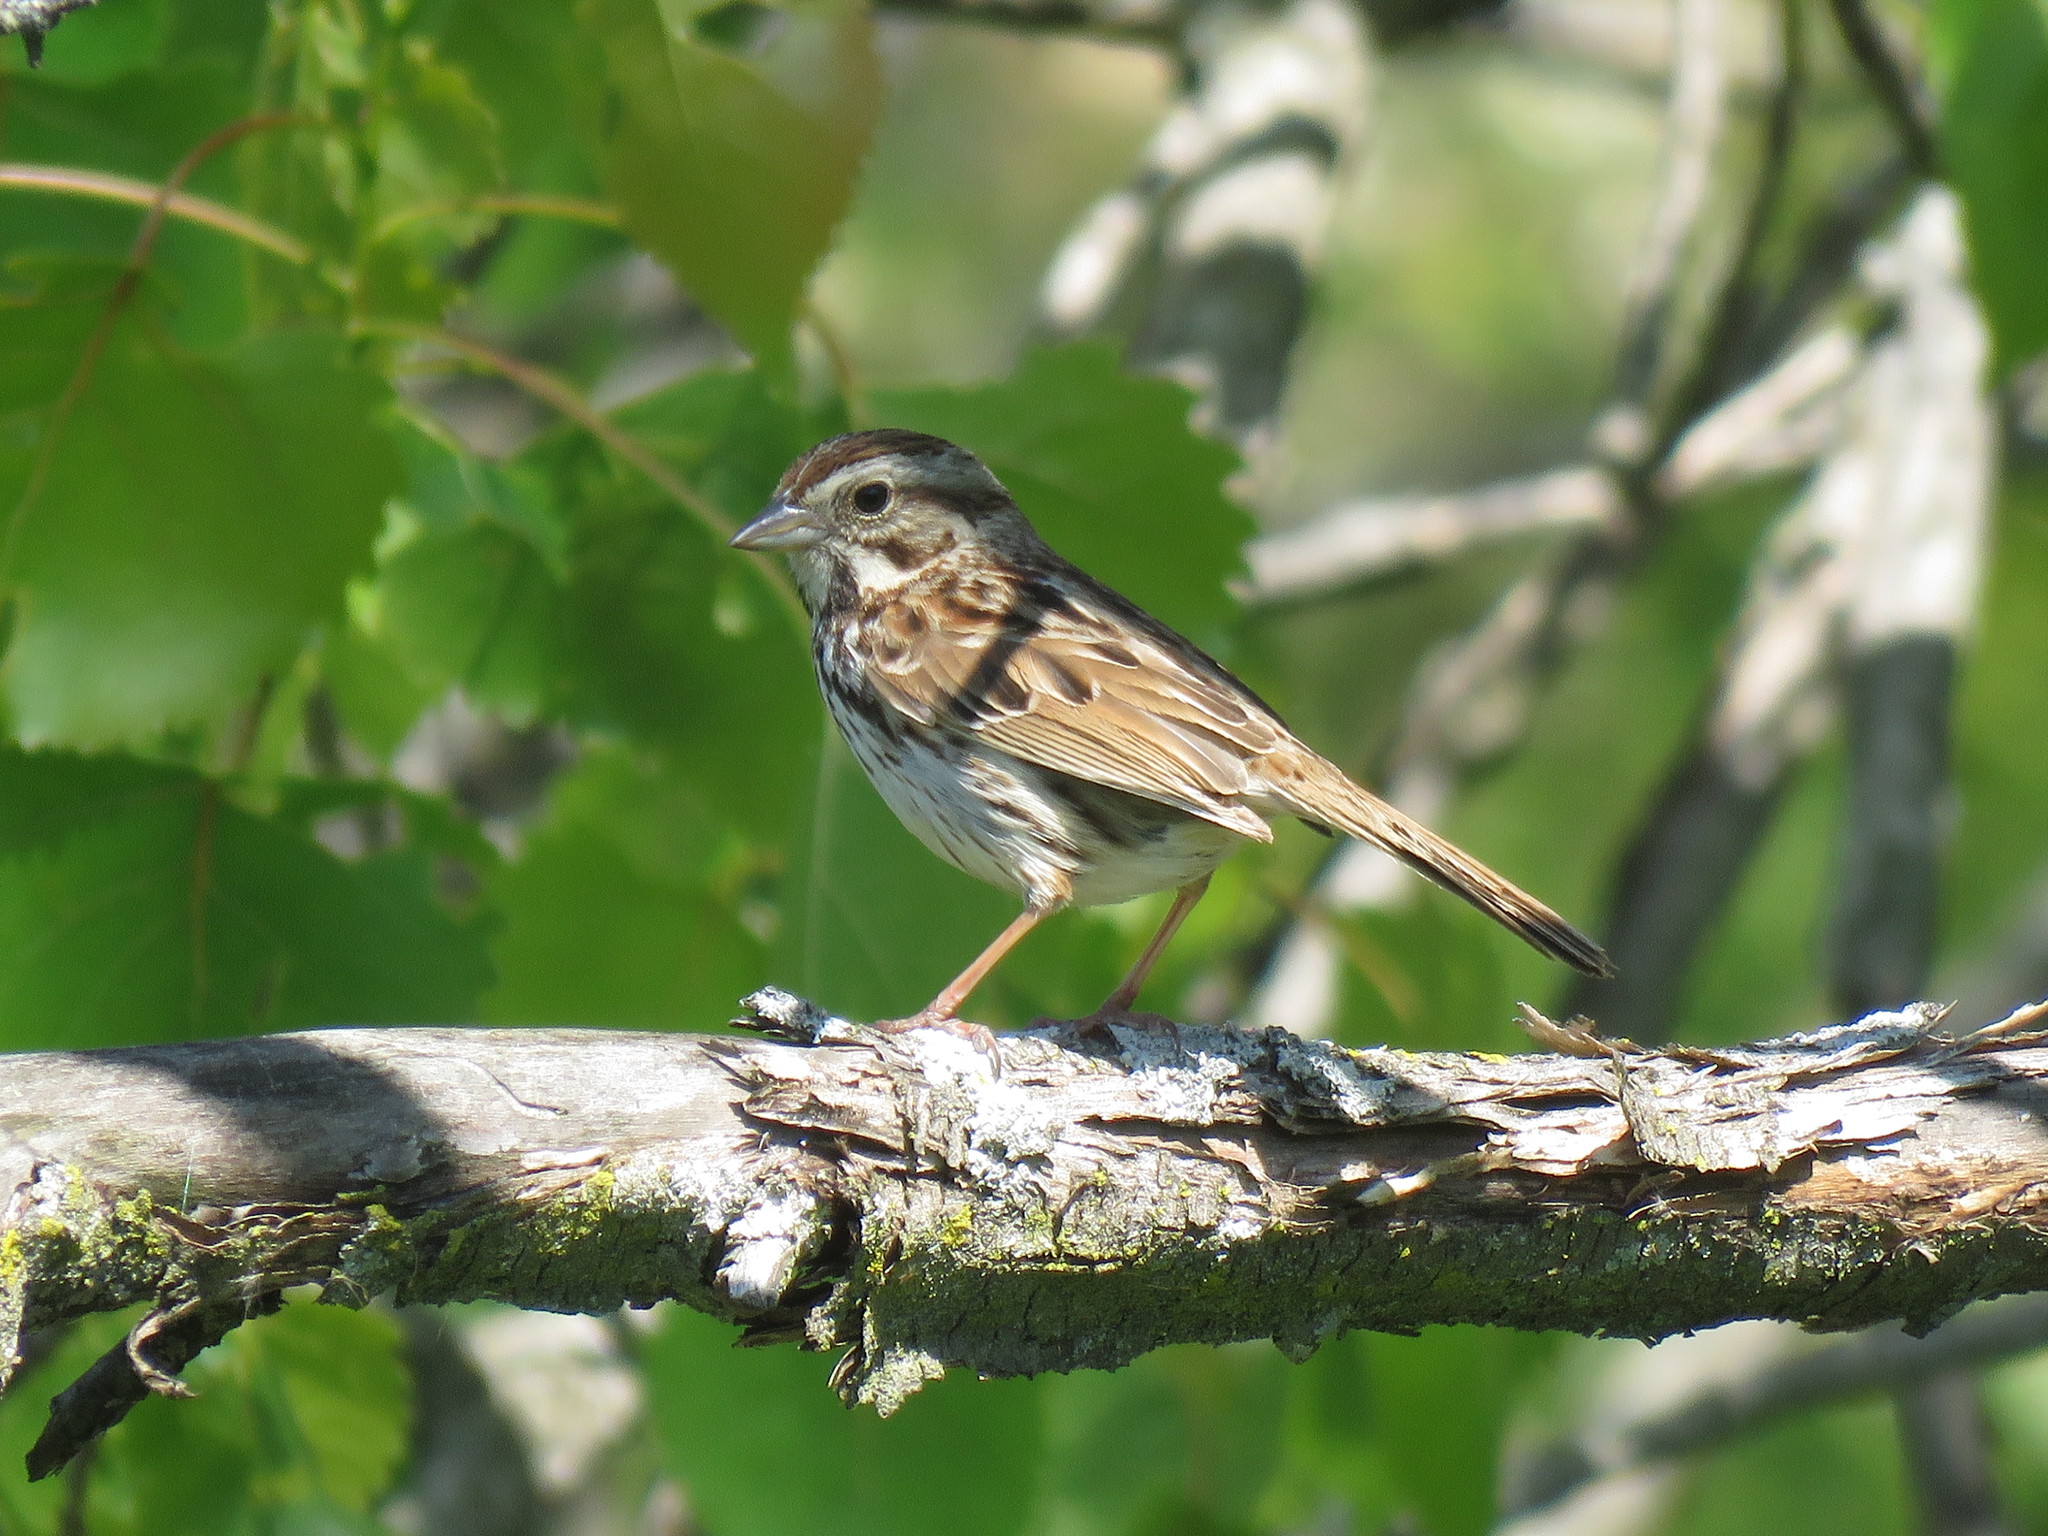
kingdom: Animalia
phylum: Chordata
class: Aves
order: Passeriformes
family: Passerellidae
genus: Melospiza
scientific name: Melospiza melodia
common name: Song sparrow
